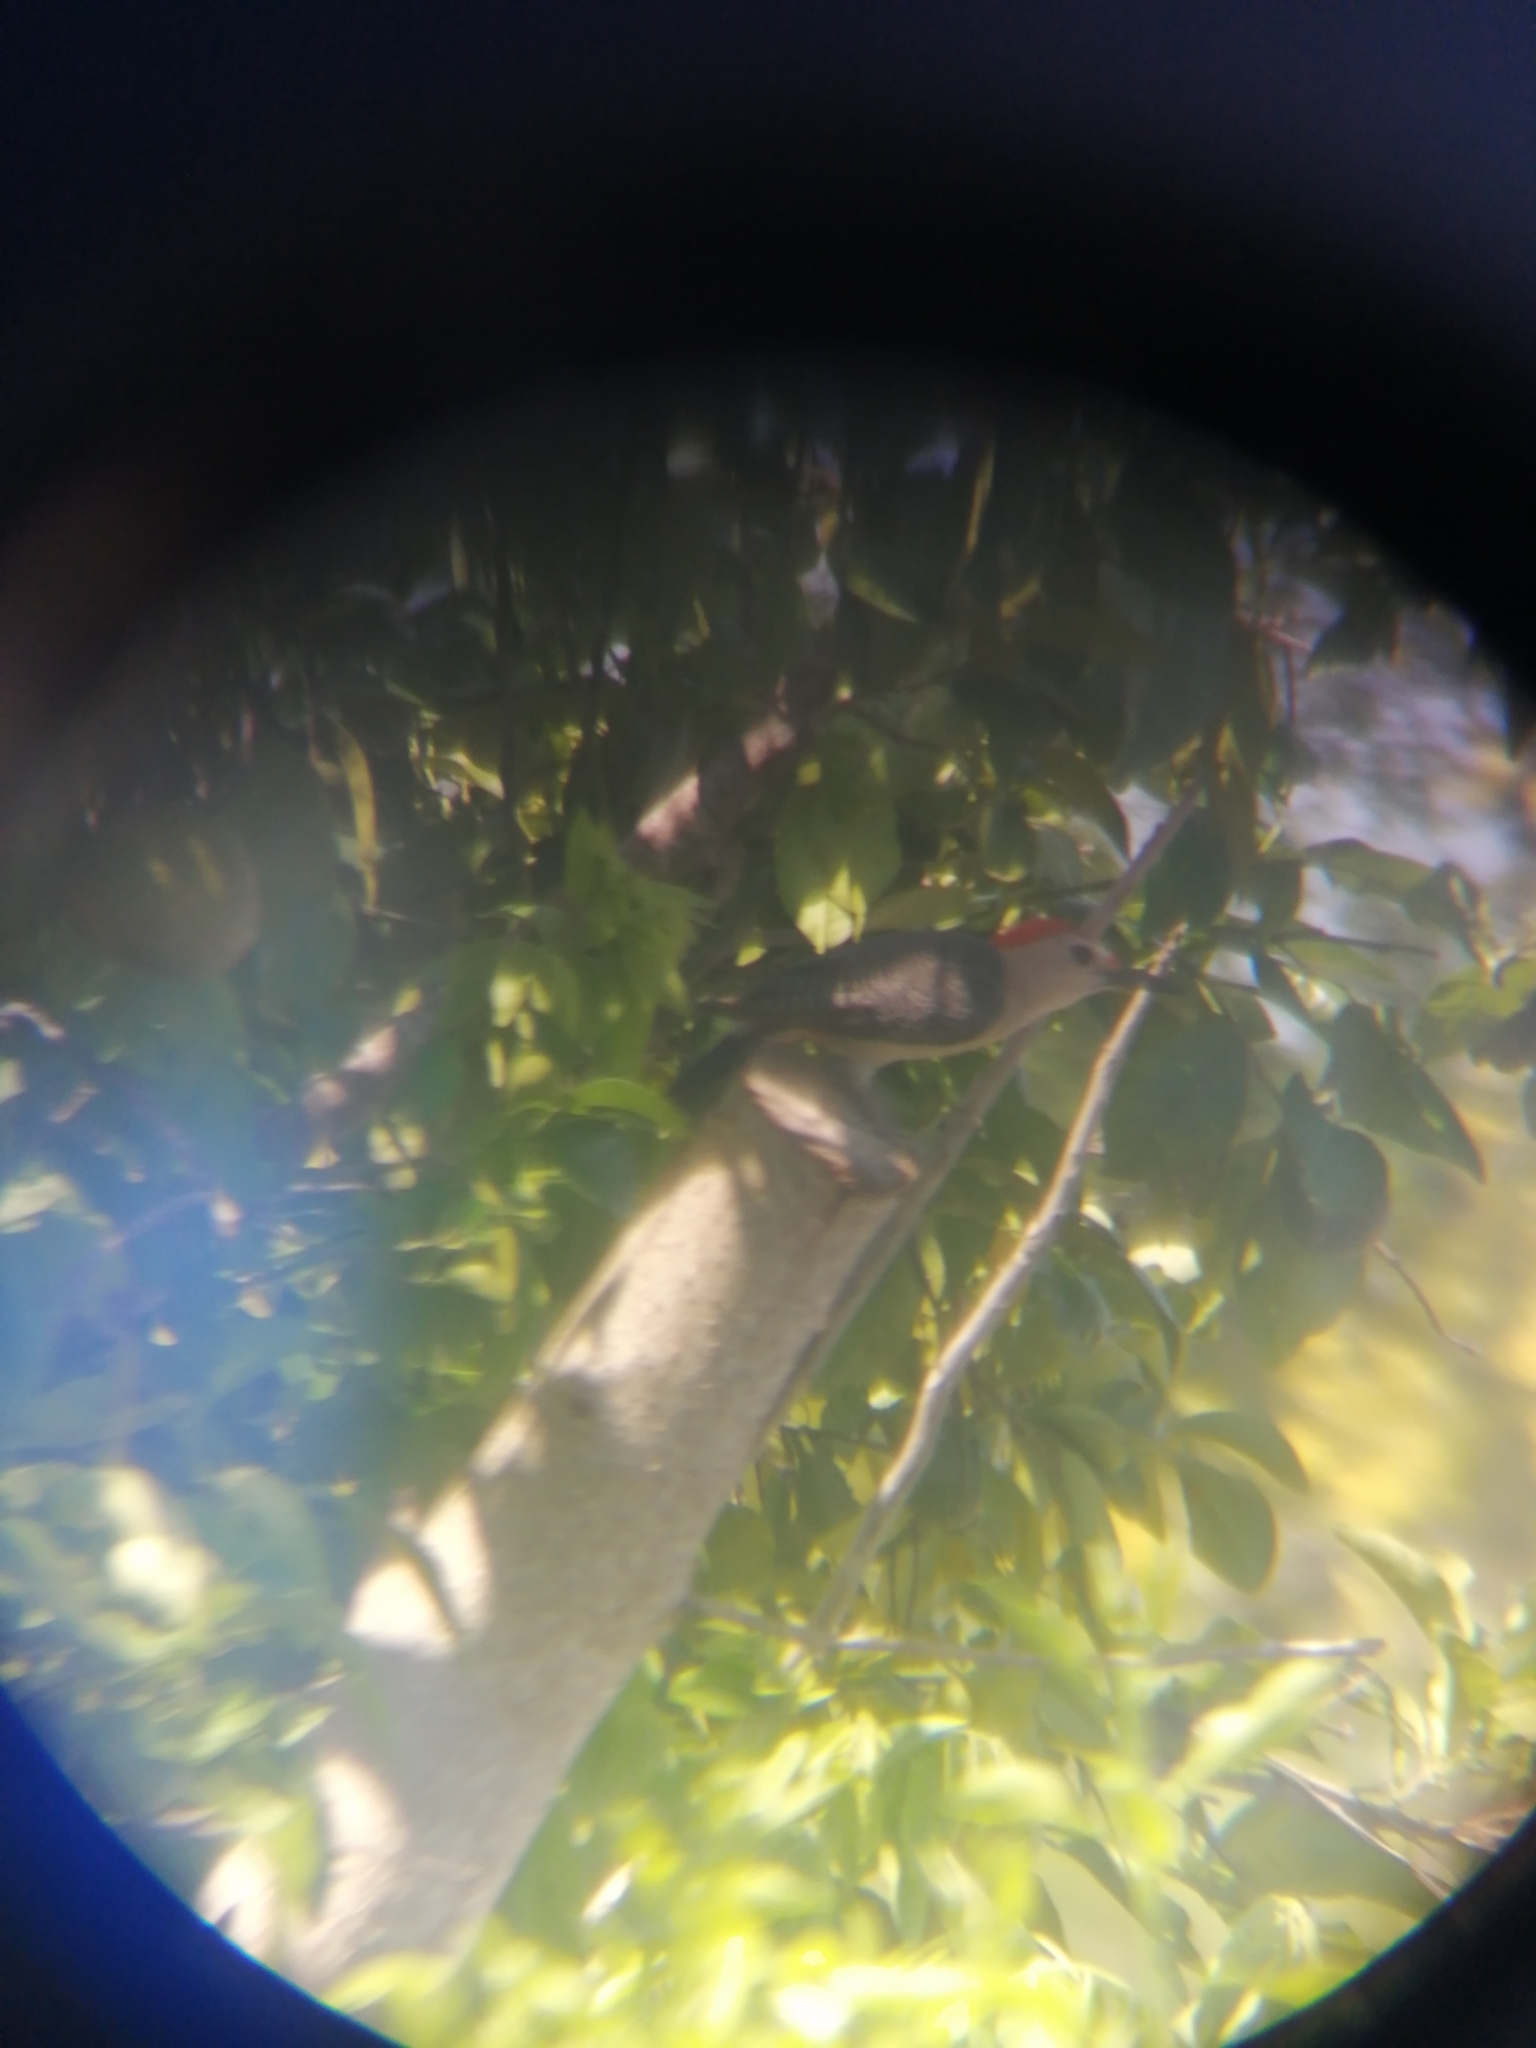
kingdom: Animalia
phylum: Chordata
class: Aves
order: Piciformes
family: Picidae
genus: Melanerpes
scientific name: Melanerpes aurifrons
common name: Golden-fronted woodpecker
